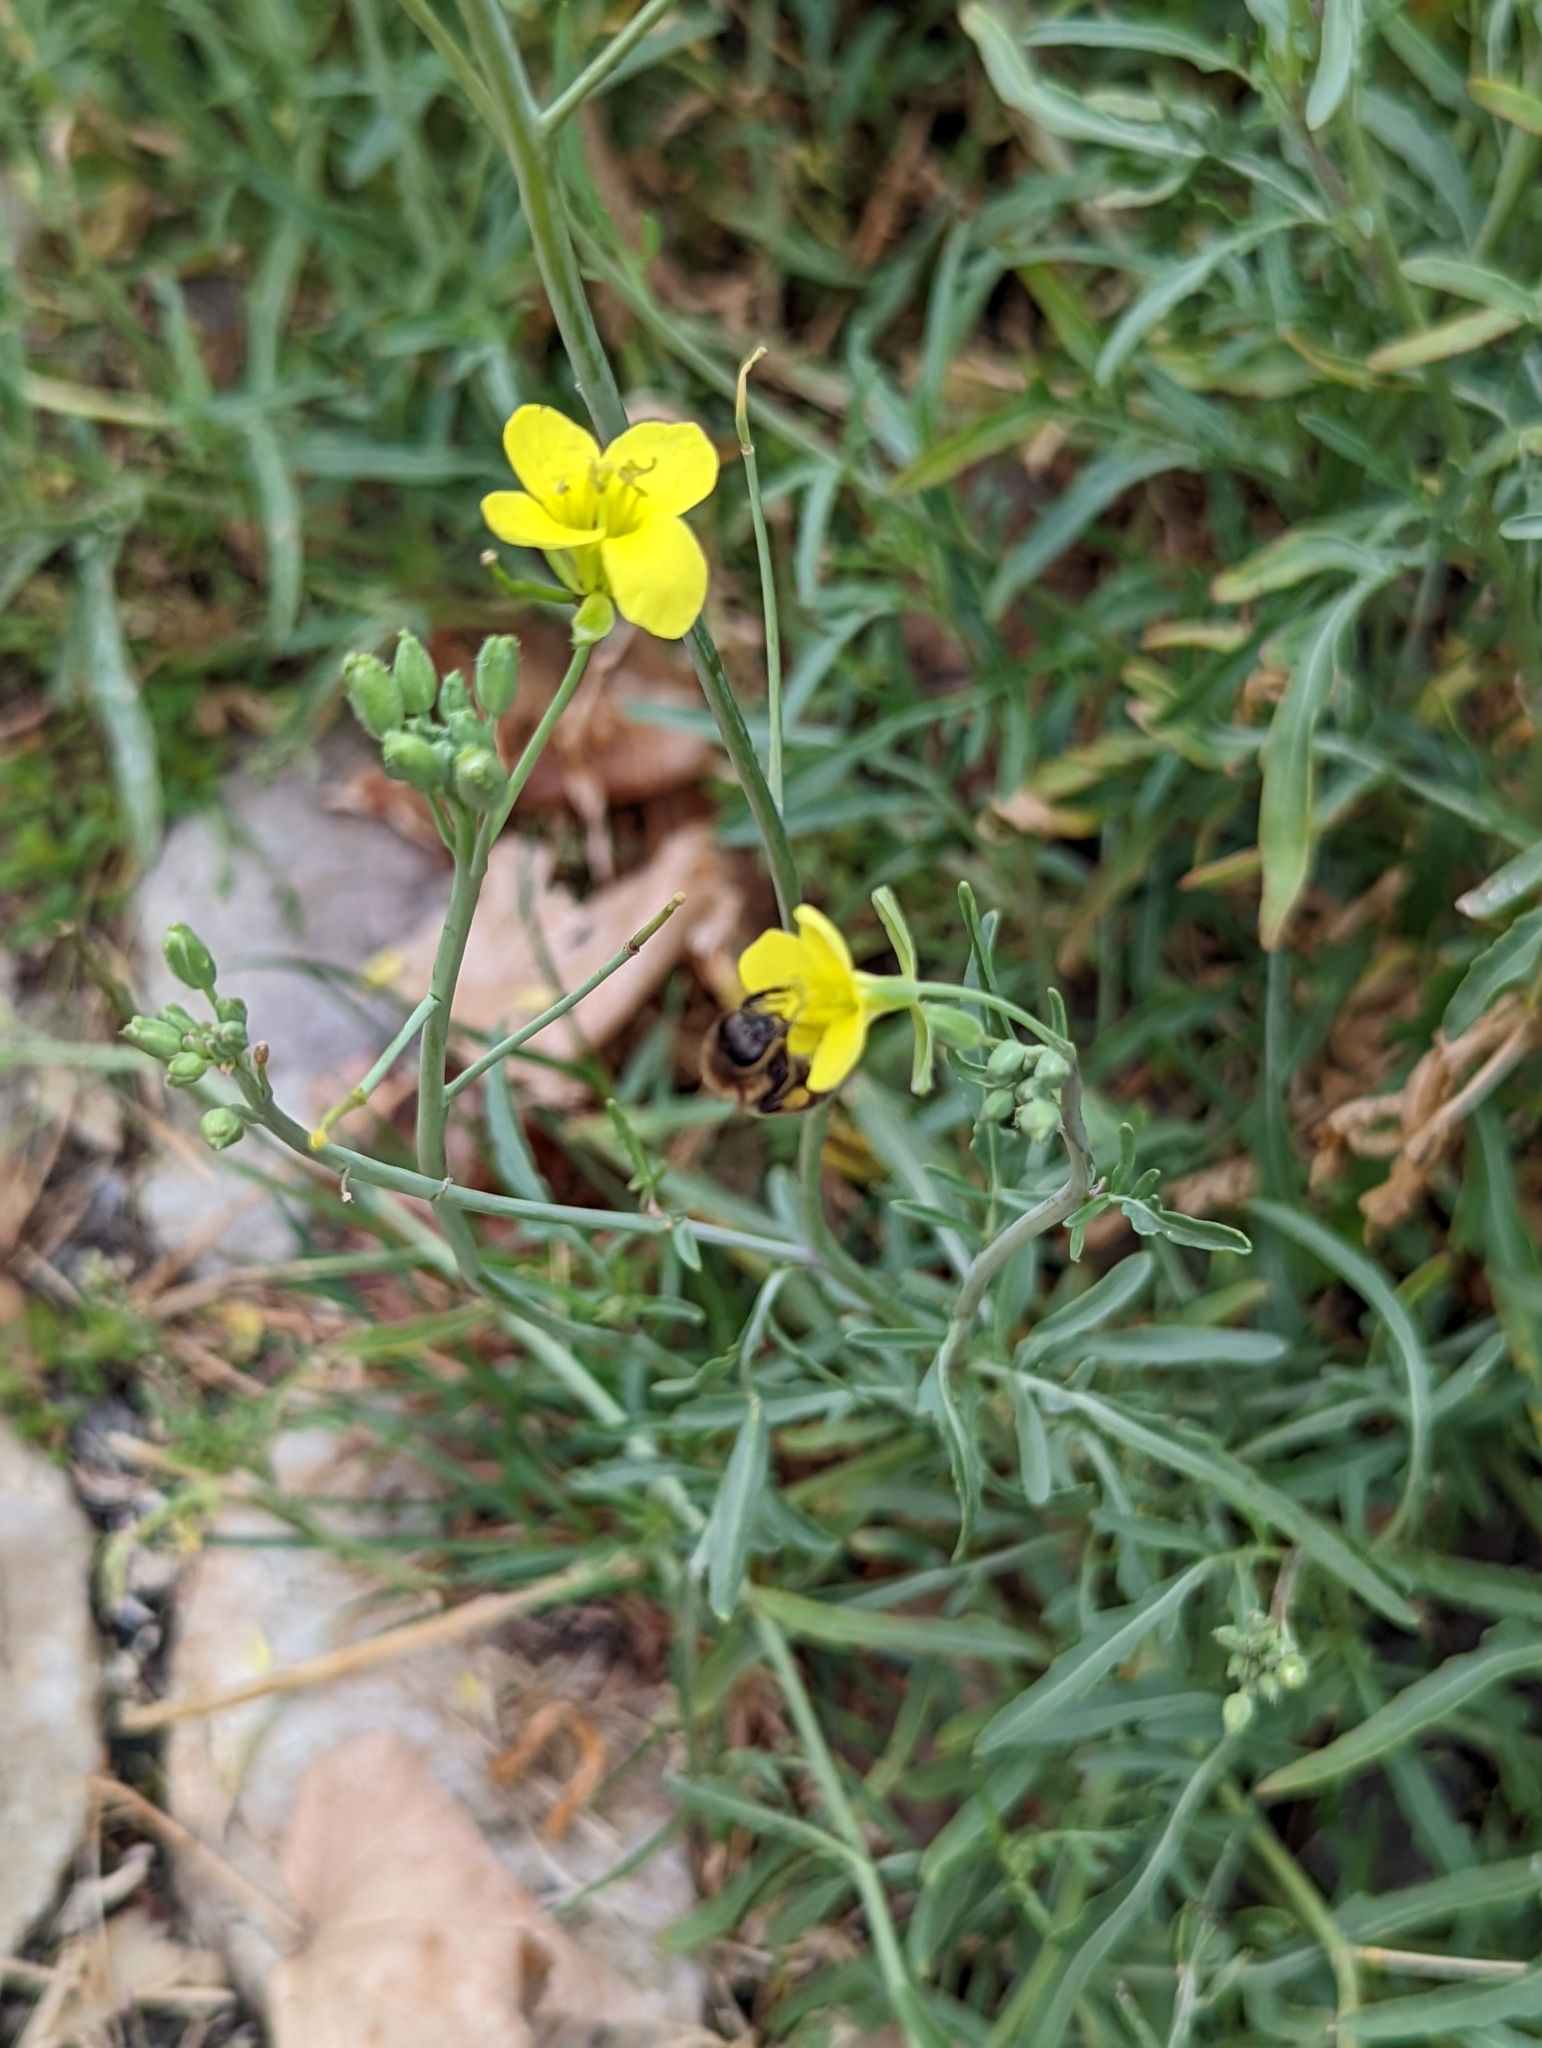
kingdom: Animalia
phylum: Arthropoda
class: Insecta
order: Hymenoptera
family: Apidae
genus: Apis
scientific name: Apis mellifera
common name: Honey bee
